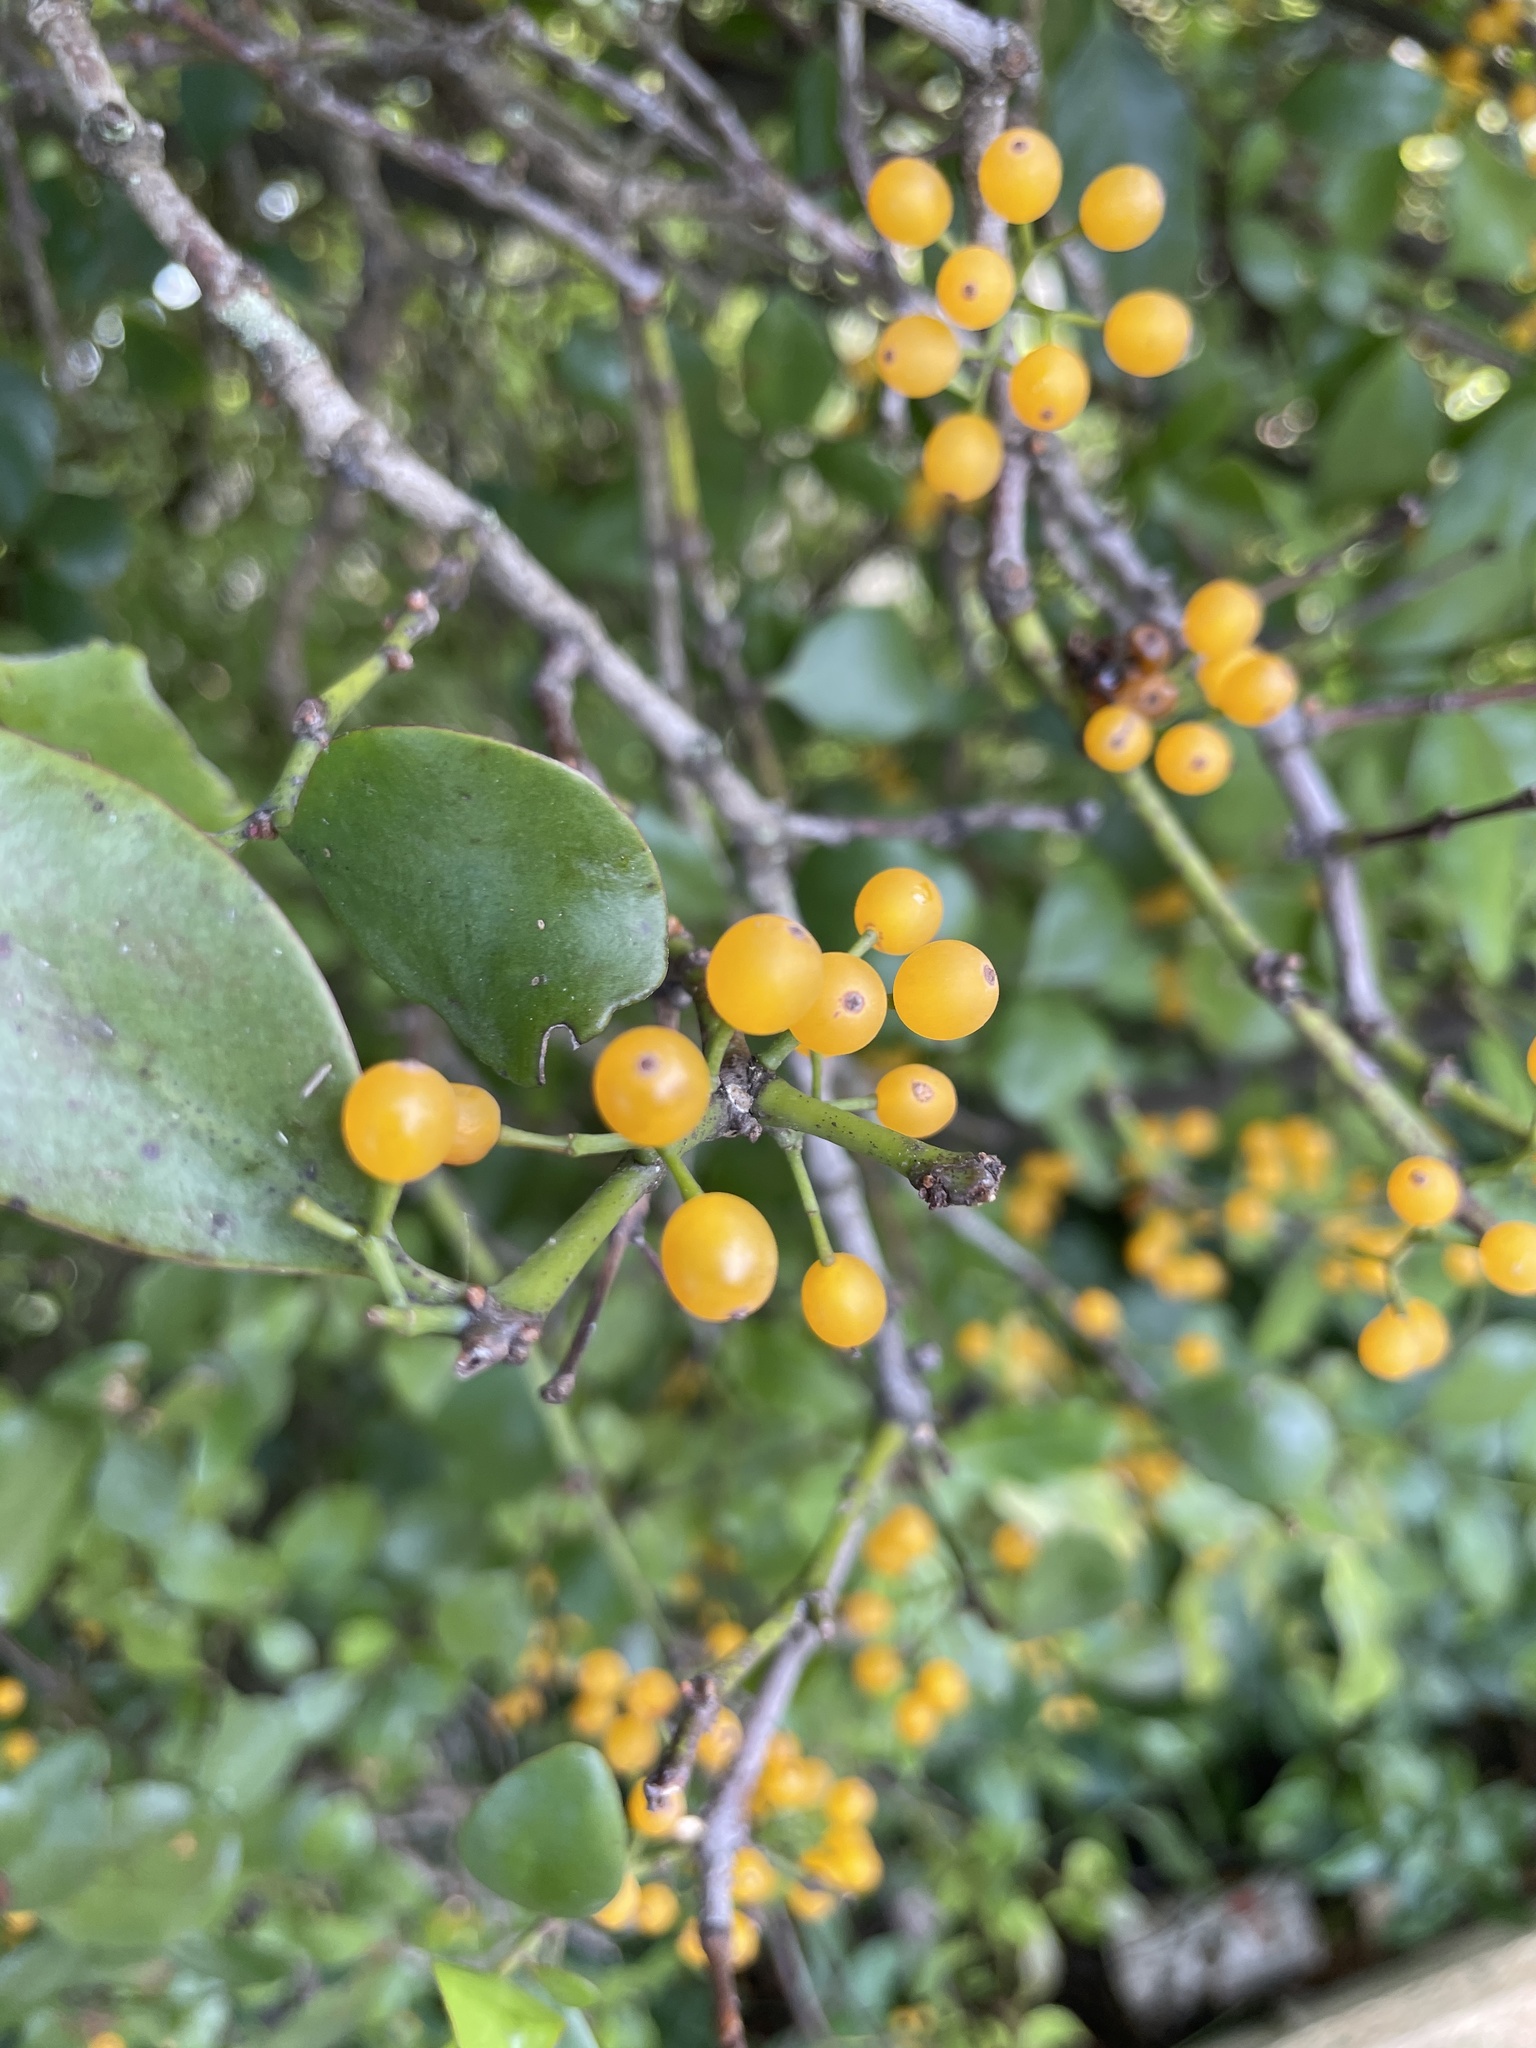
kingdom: Plantae
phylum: Tracheophyta
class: Magnoliopsida
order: Santalales
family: Loranthaceae
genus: Ileostylus
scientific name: Ileostylus micranthus
